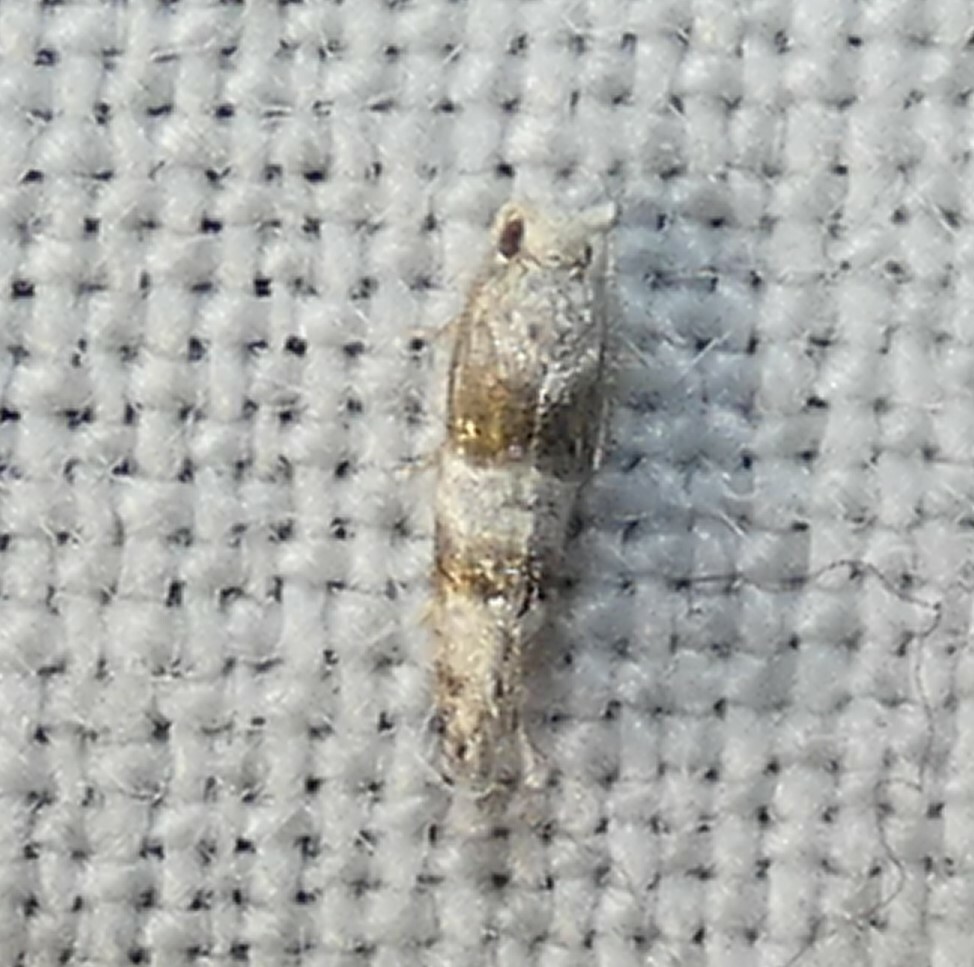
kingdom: Animalia
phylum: Arthropoda
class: Insecta
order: Lepidoptera
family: Tortricidae
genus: Corticivora
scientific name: Corticivora parva
